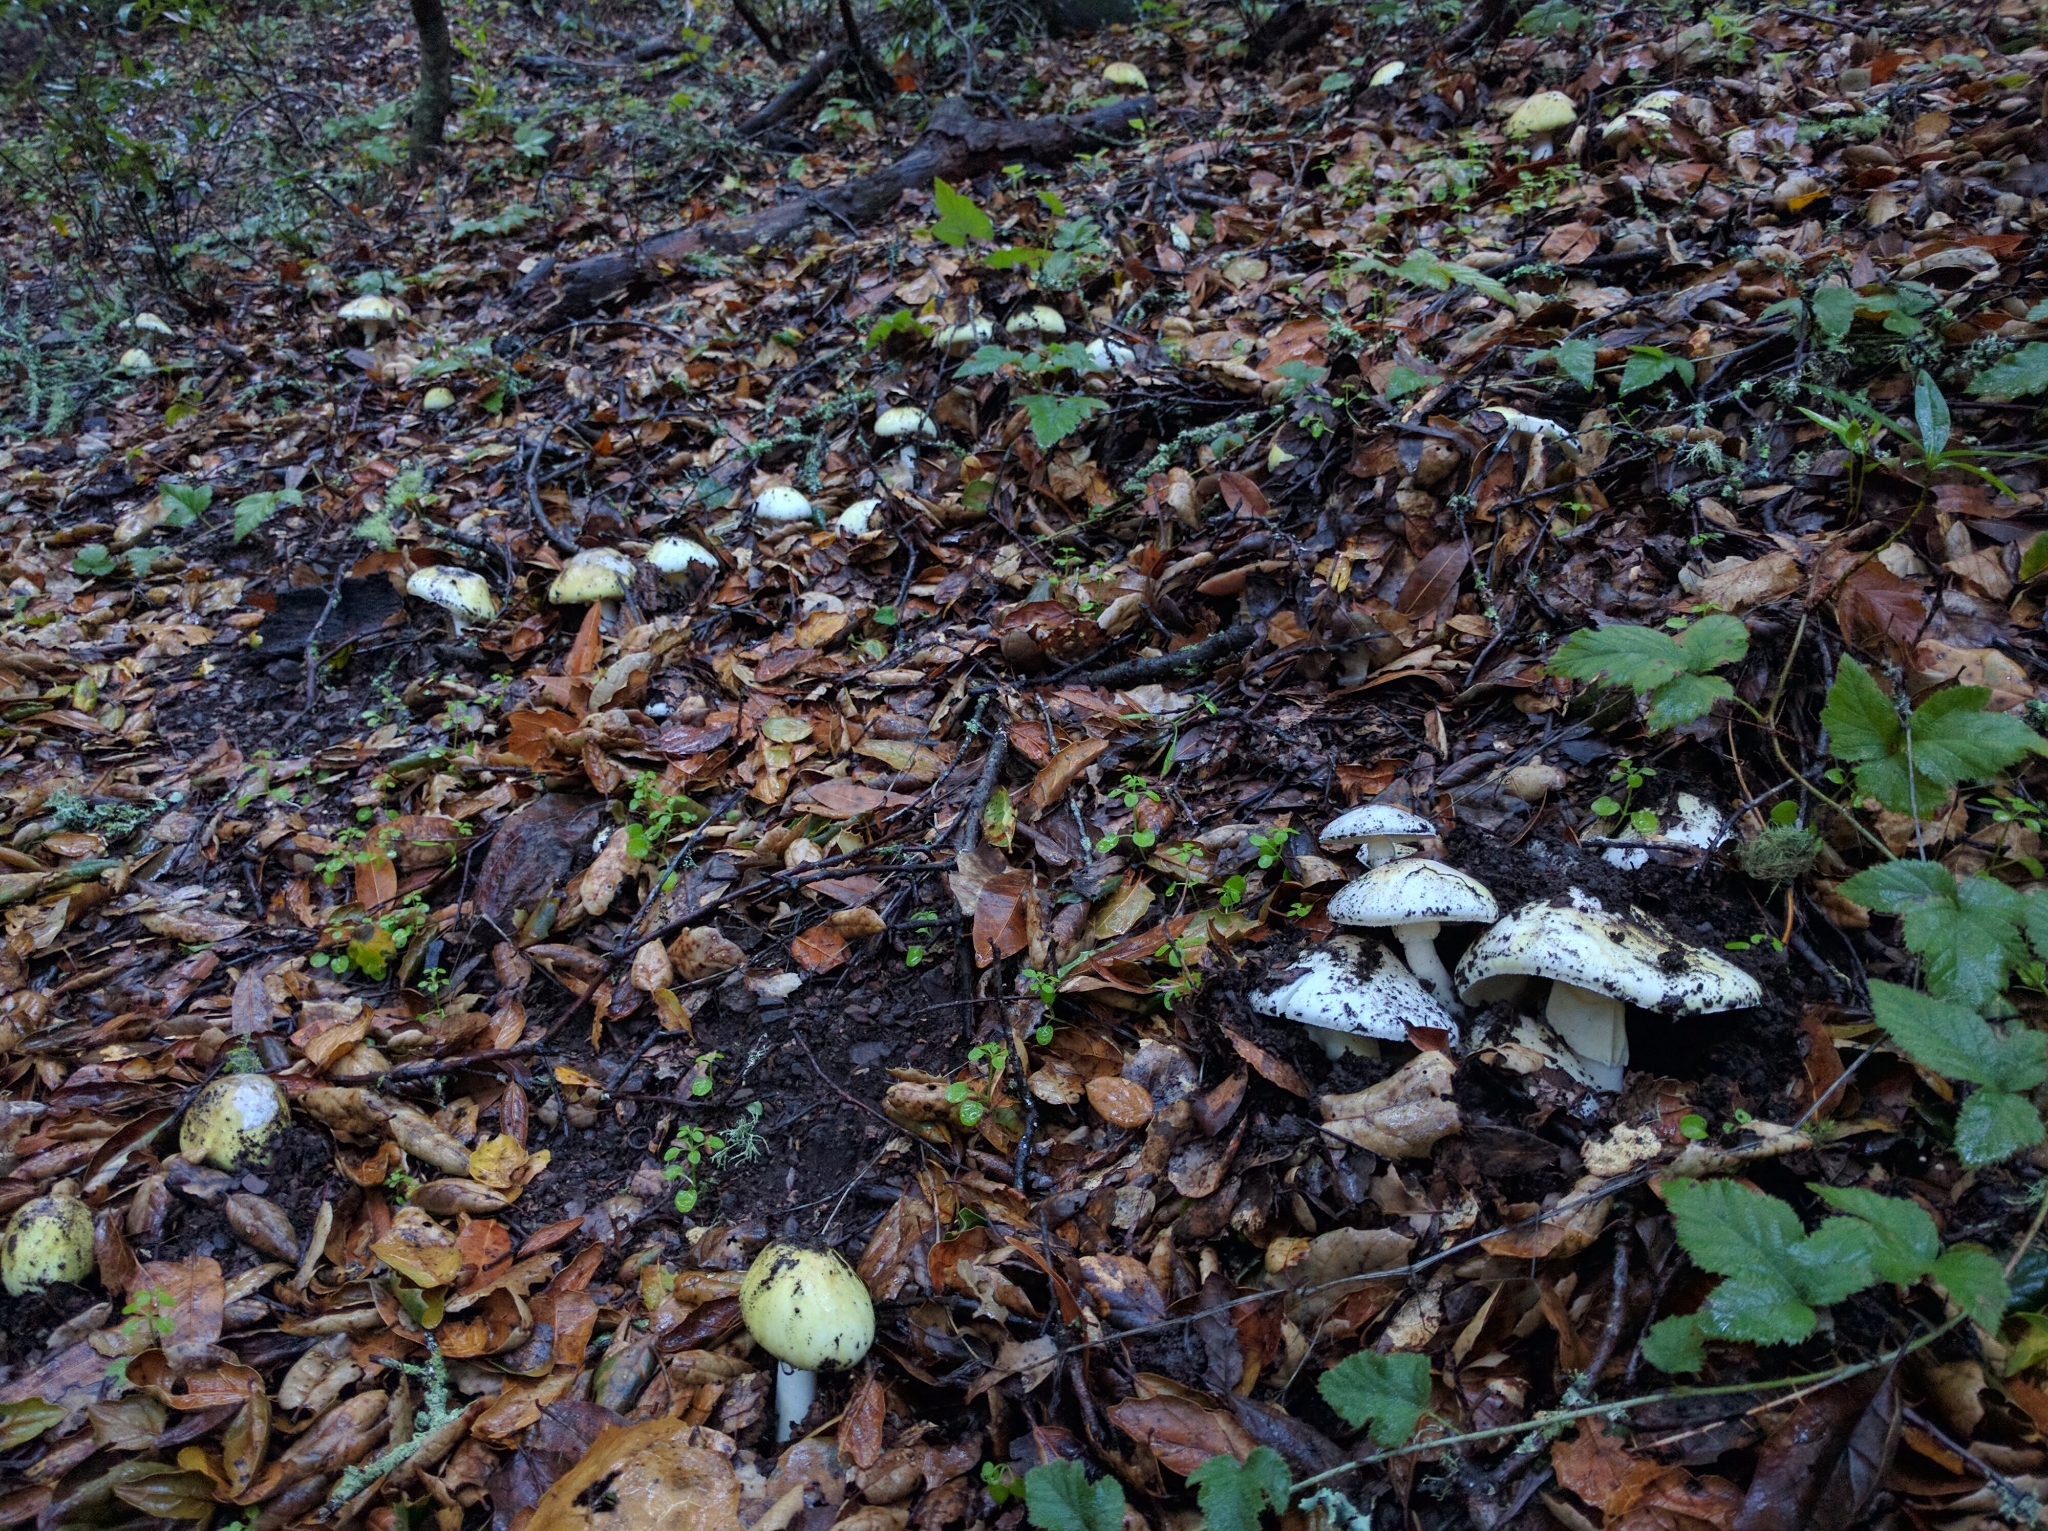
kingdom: Fungi
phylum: Basidiomycota
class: Agaricomycetes
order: Agaricales
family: Amanitaceae
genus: Amanita
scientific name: Amanita phalloides
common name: Death cap
